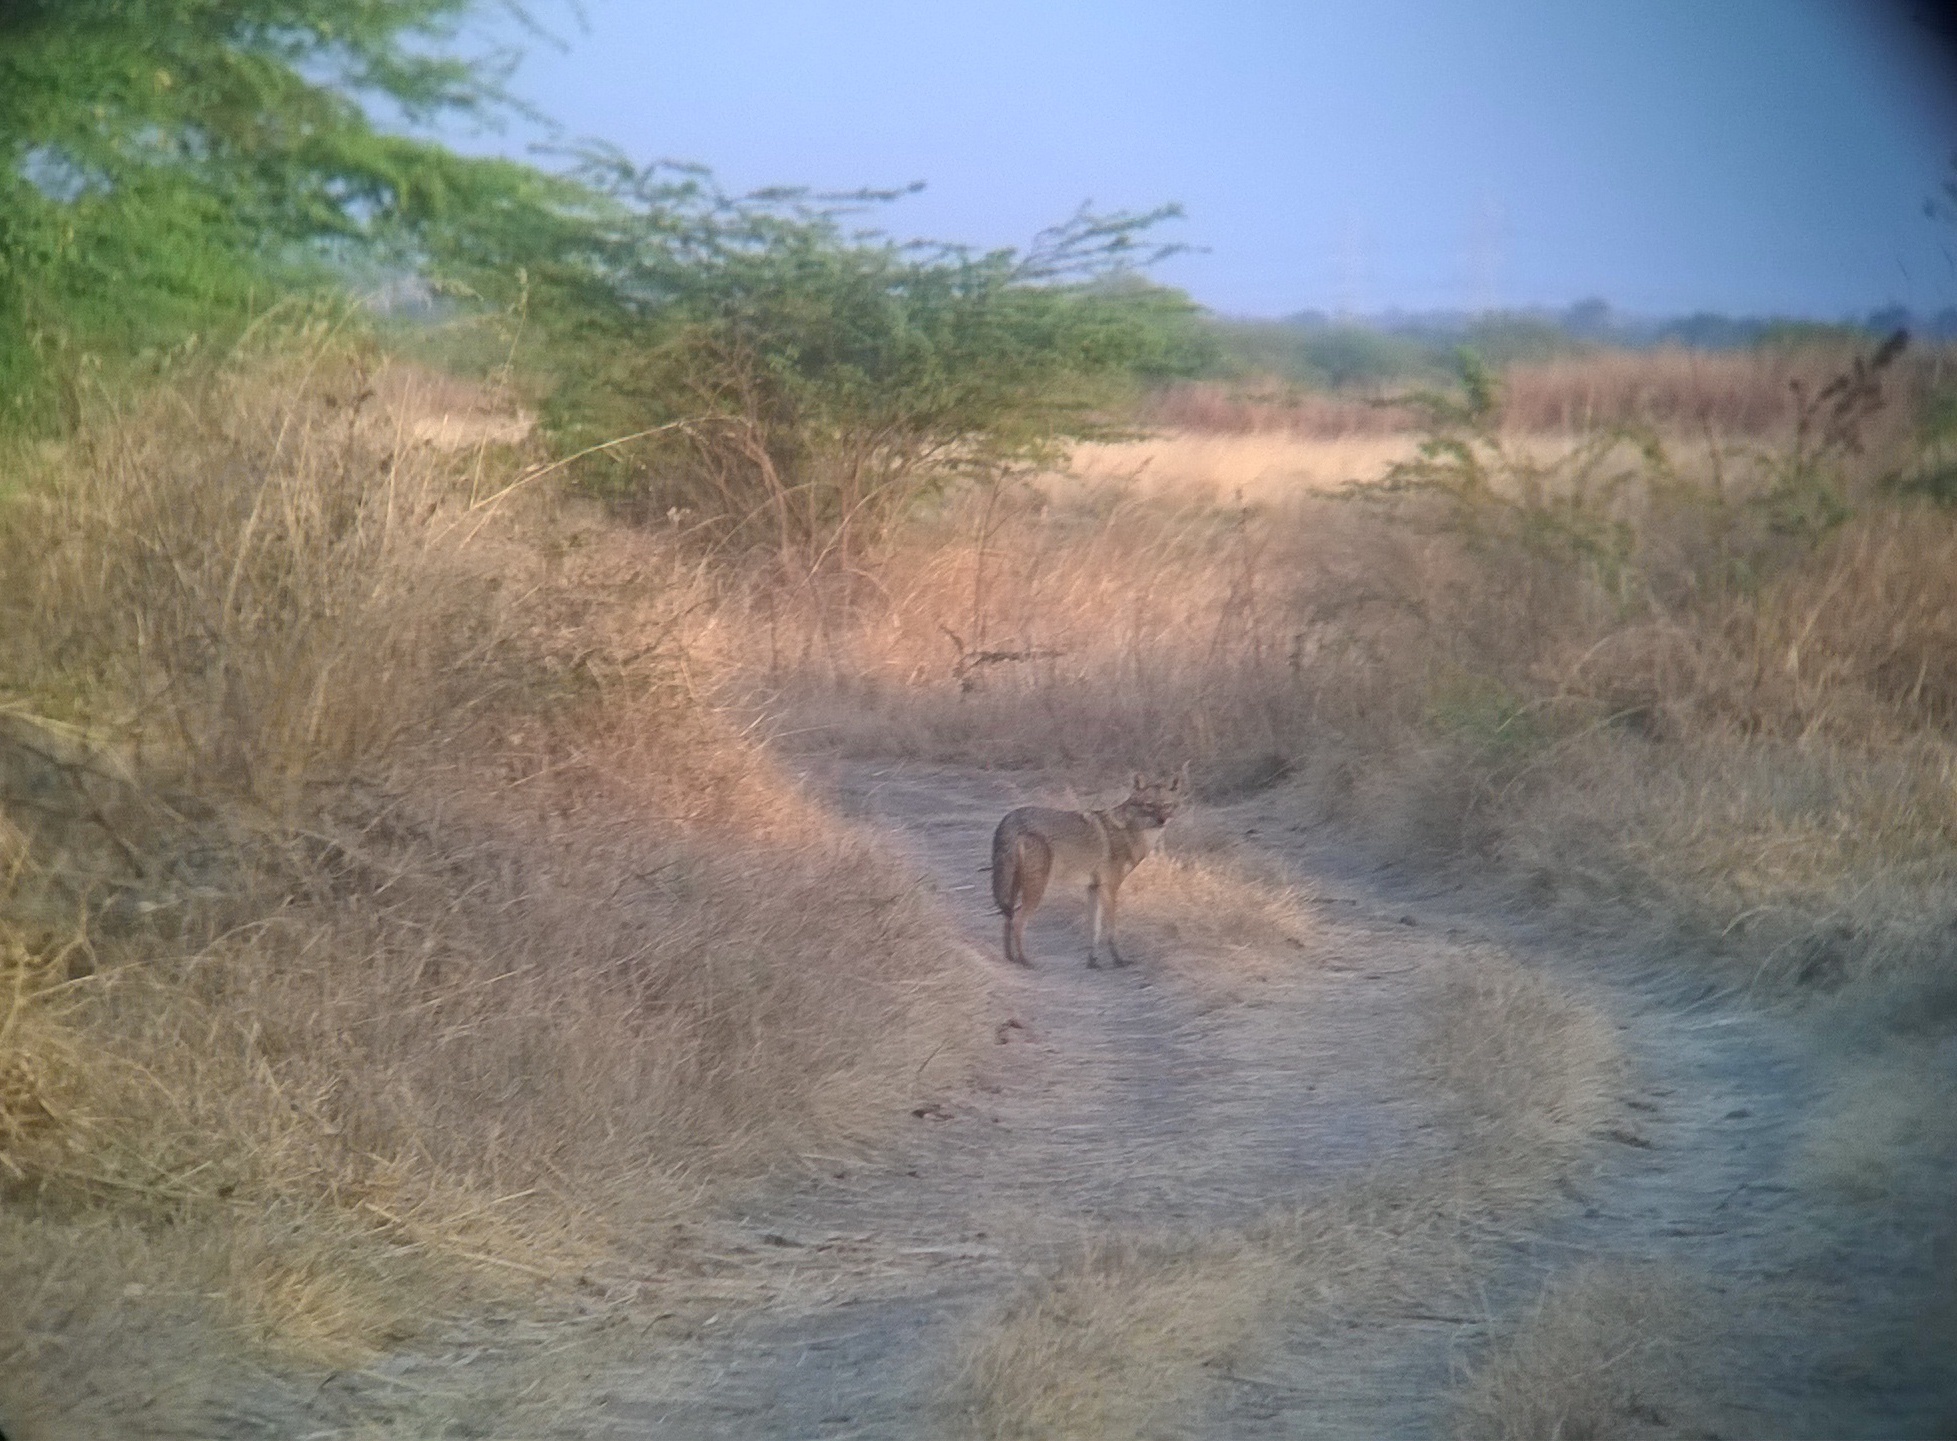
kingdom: Animalia
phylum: Chordata
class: Mammalia
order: Carnivora
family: Canidae
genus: Canis
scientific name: Canis aureus
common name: Golden jackal
